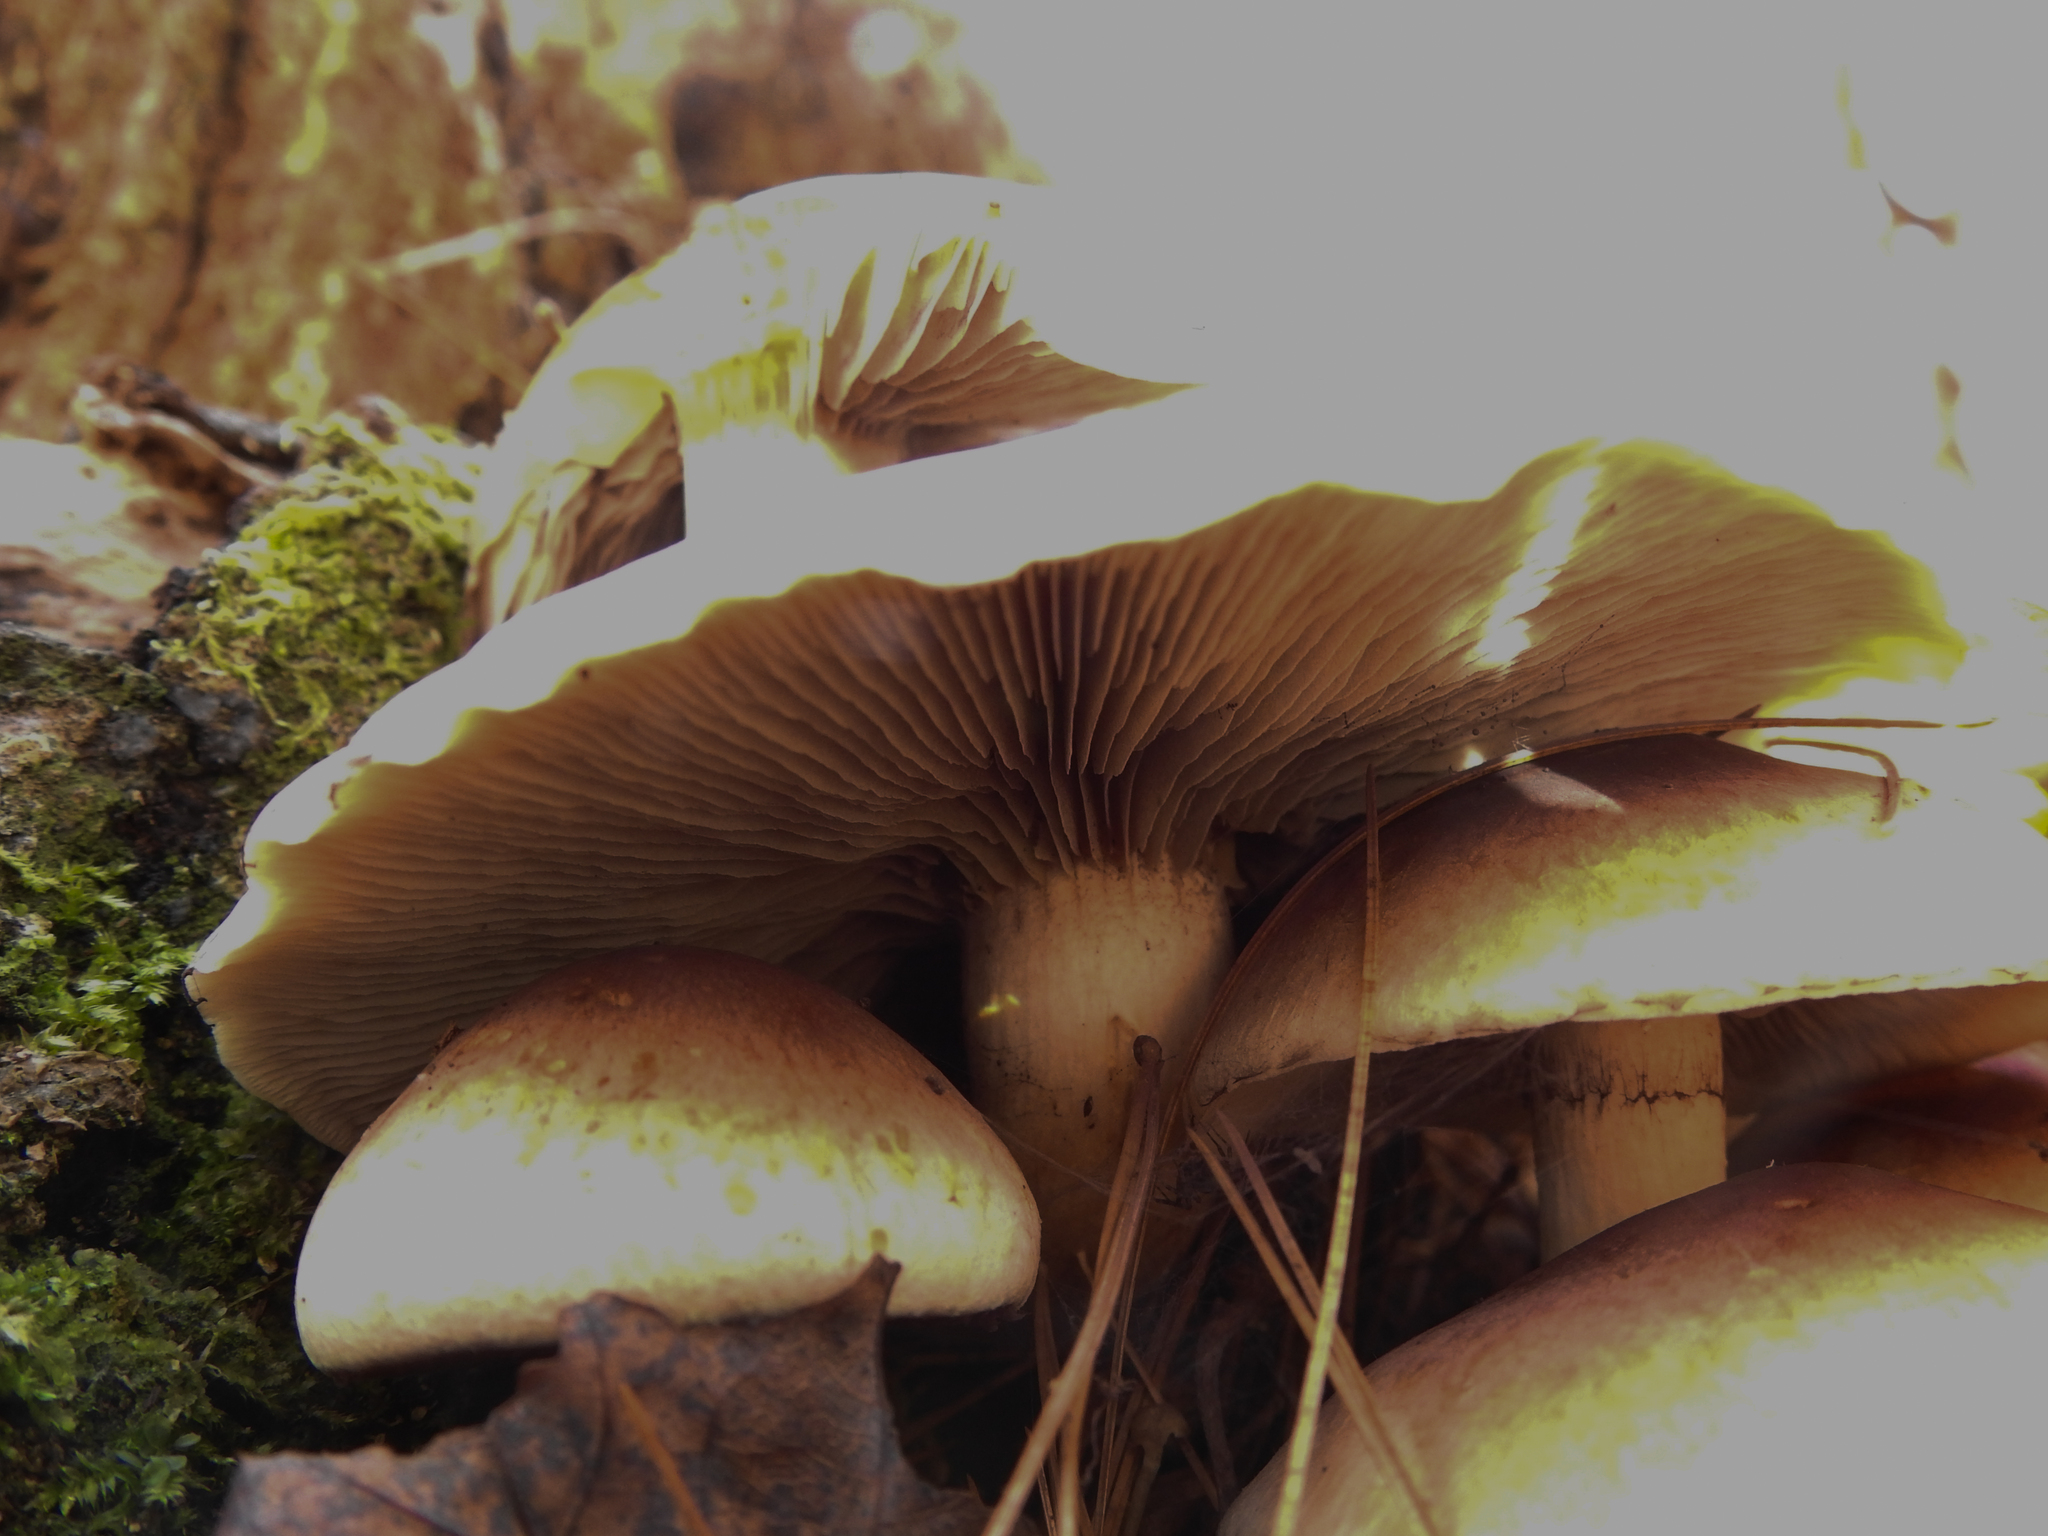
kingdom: Fungi
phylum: Basidiomycota
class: Agaricomycetes
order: Agaricales
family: Strophariaceae
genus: Hypholoma
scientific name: Hypholoma lateritium
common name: Brick caps
